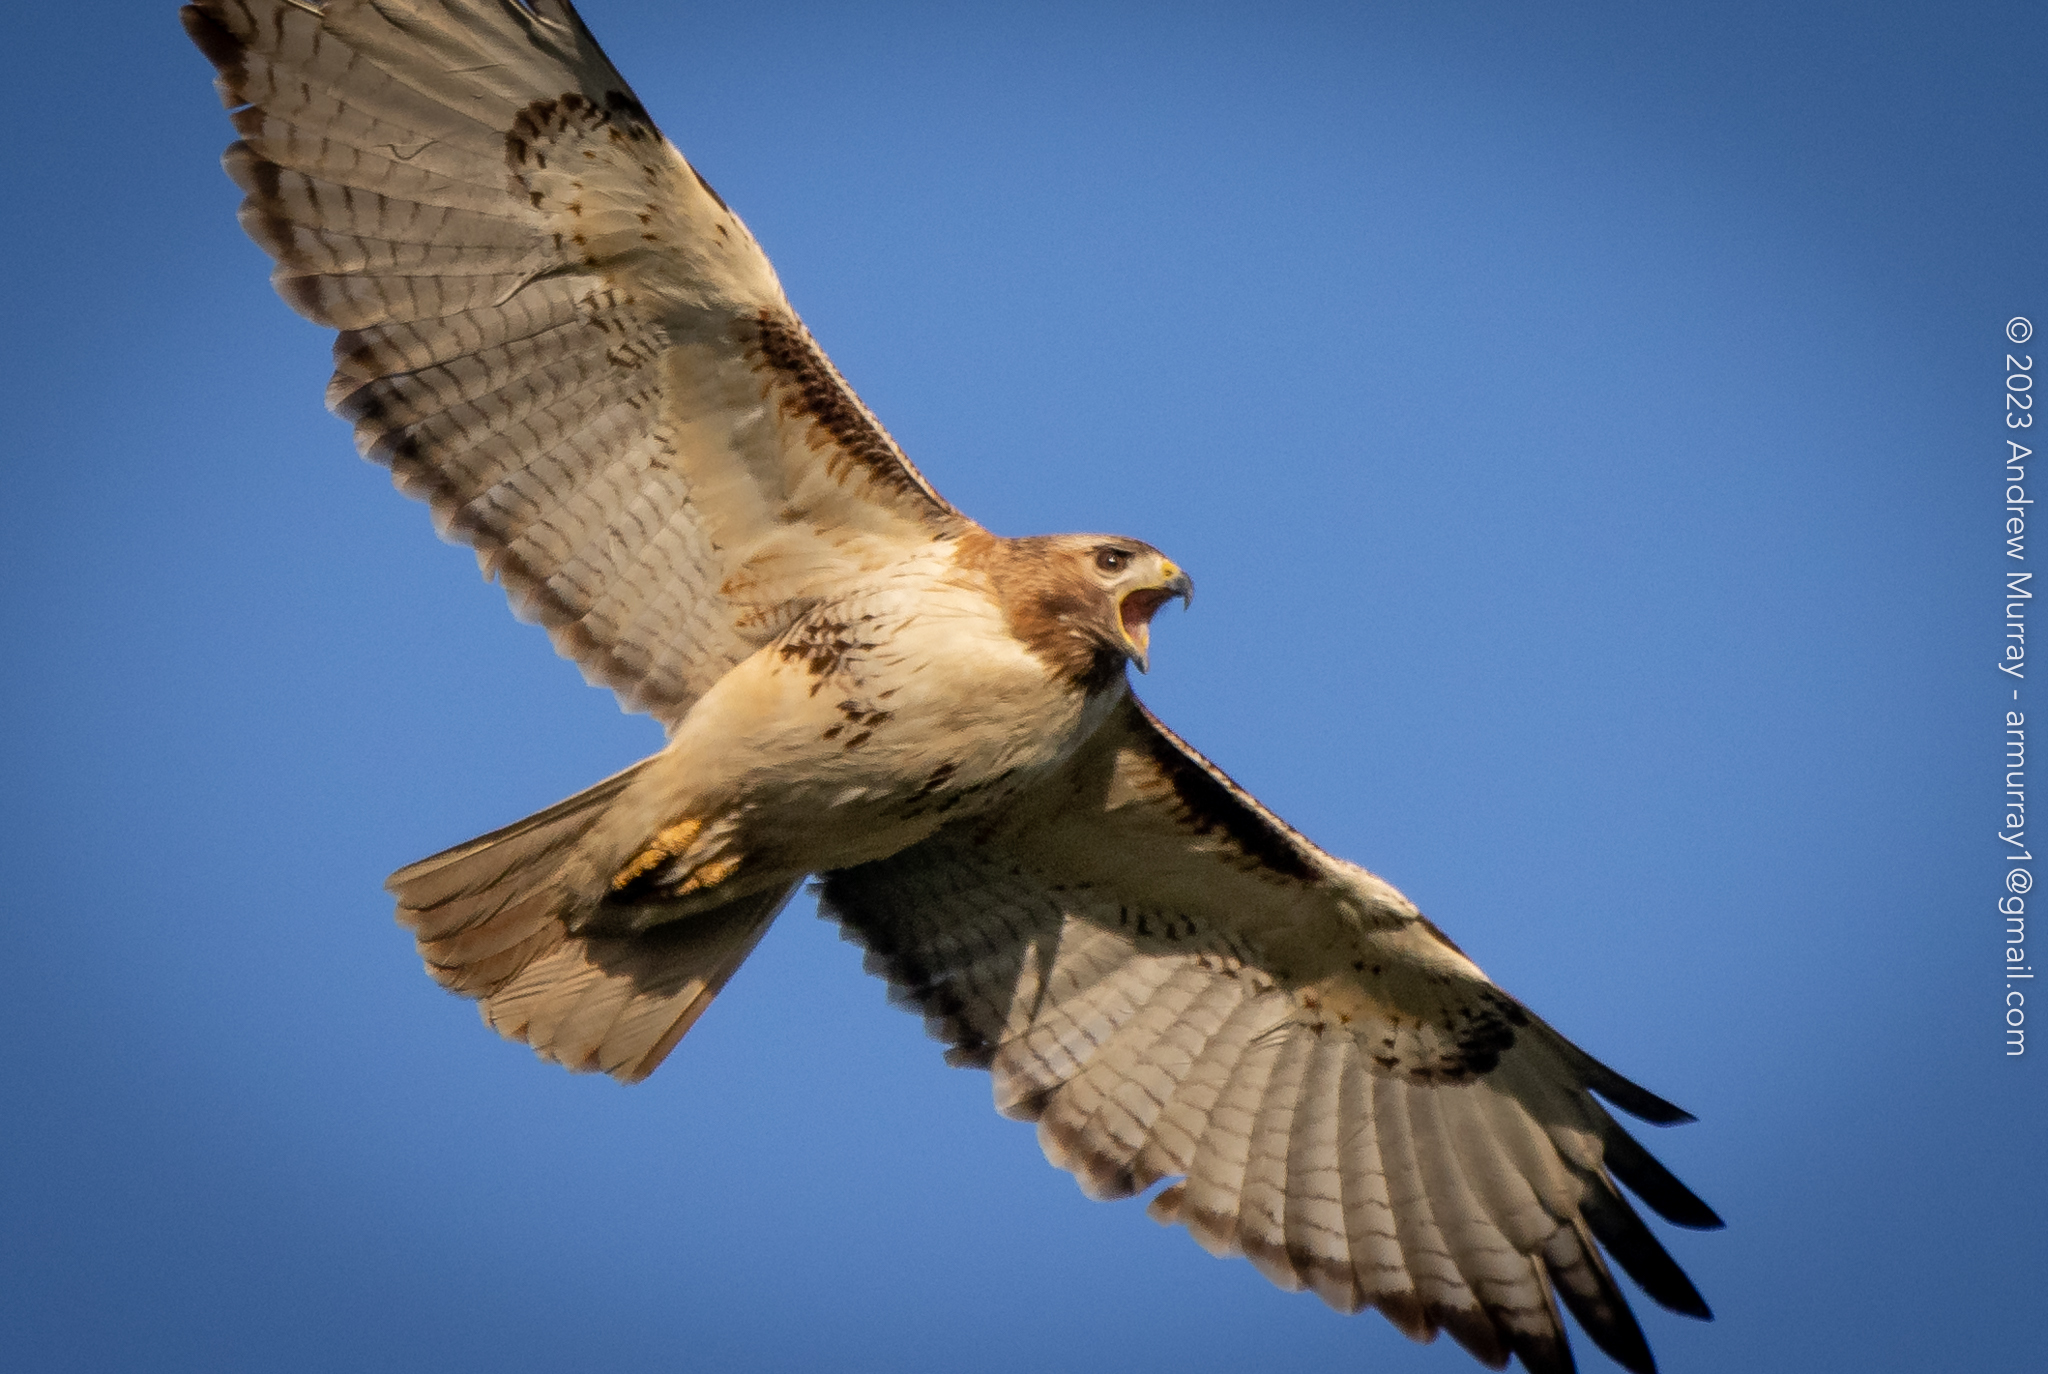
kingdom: Animalia
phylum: Chordata
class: Aves
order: Accipitriformes
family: Accipitridae
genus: Buteo
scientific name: Buteo jamaicensis
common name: Red-tailed hawk
